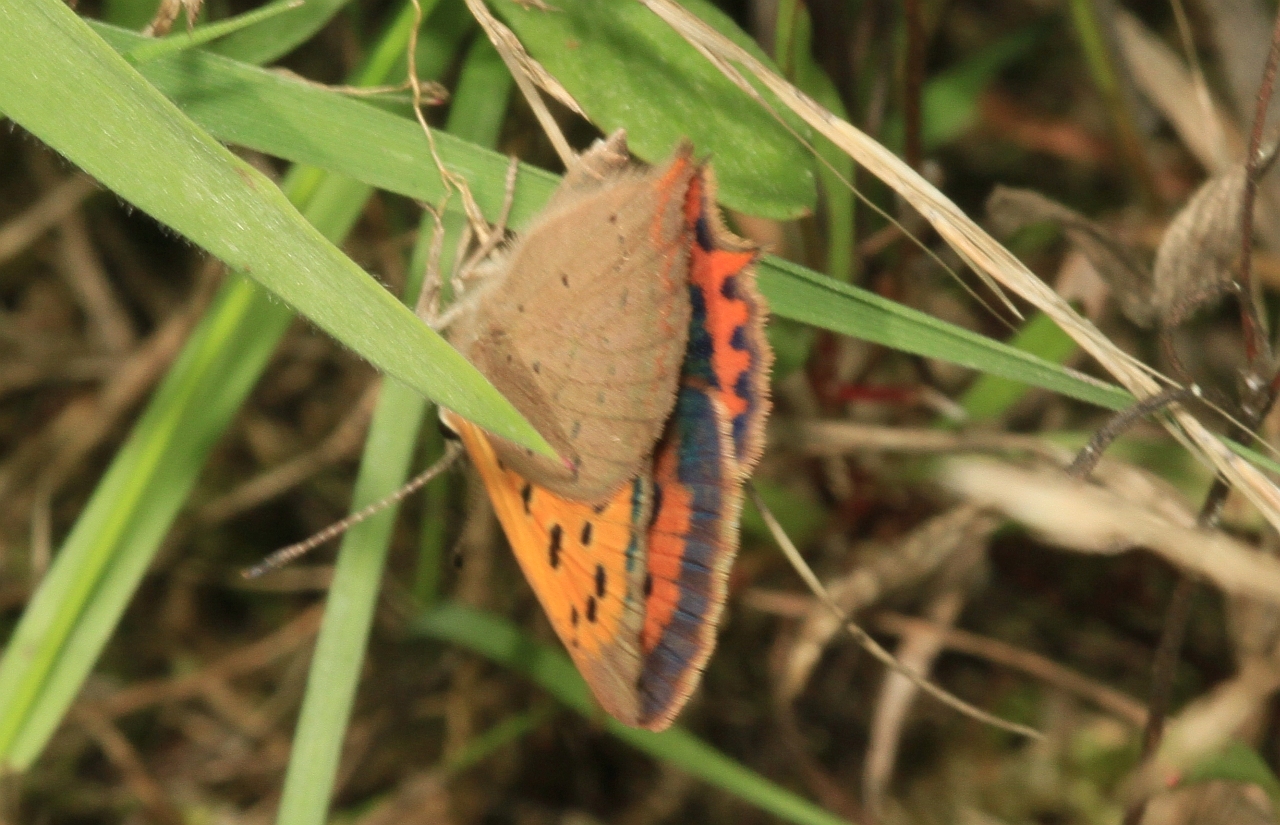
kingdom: Animalia
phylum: Arthropoda
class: Insecta
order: Lepidoptera
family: Lycaenidae
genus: Lycaena
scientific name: Lycaena phlaeas
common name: Small copper
